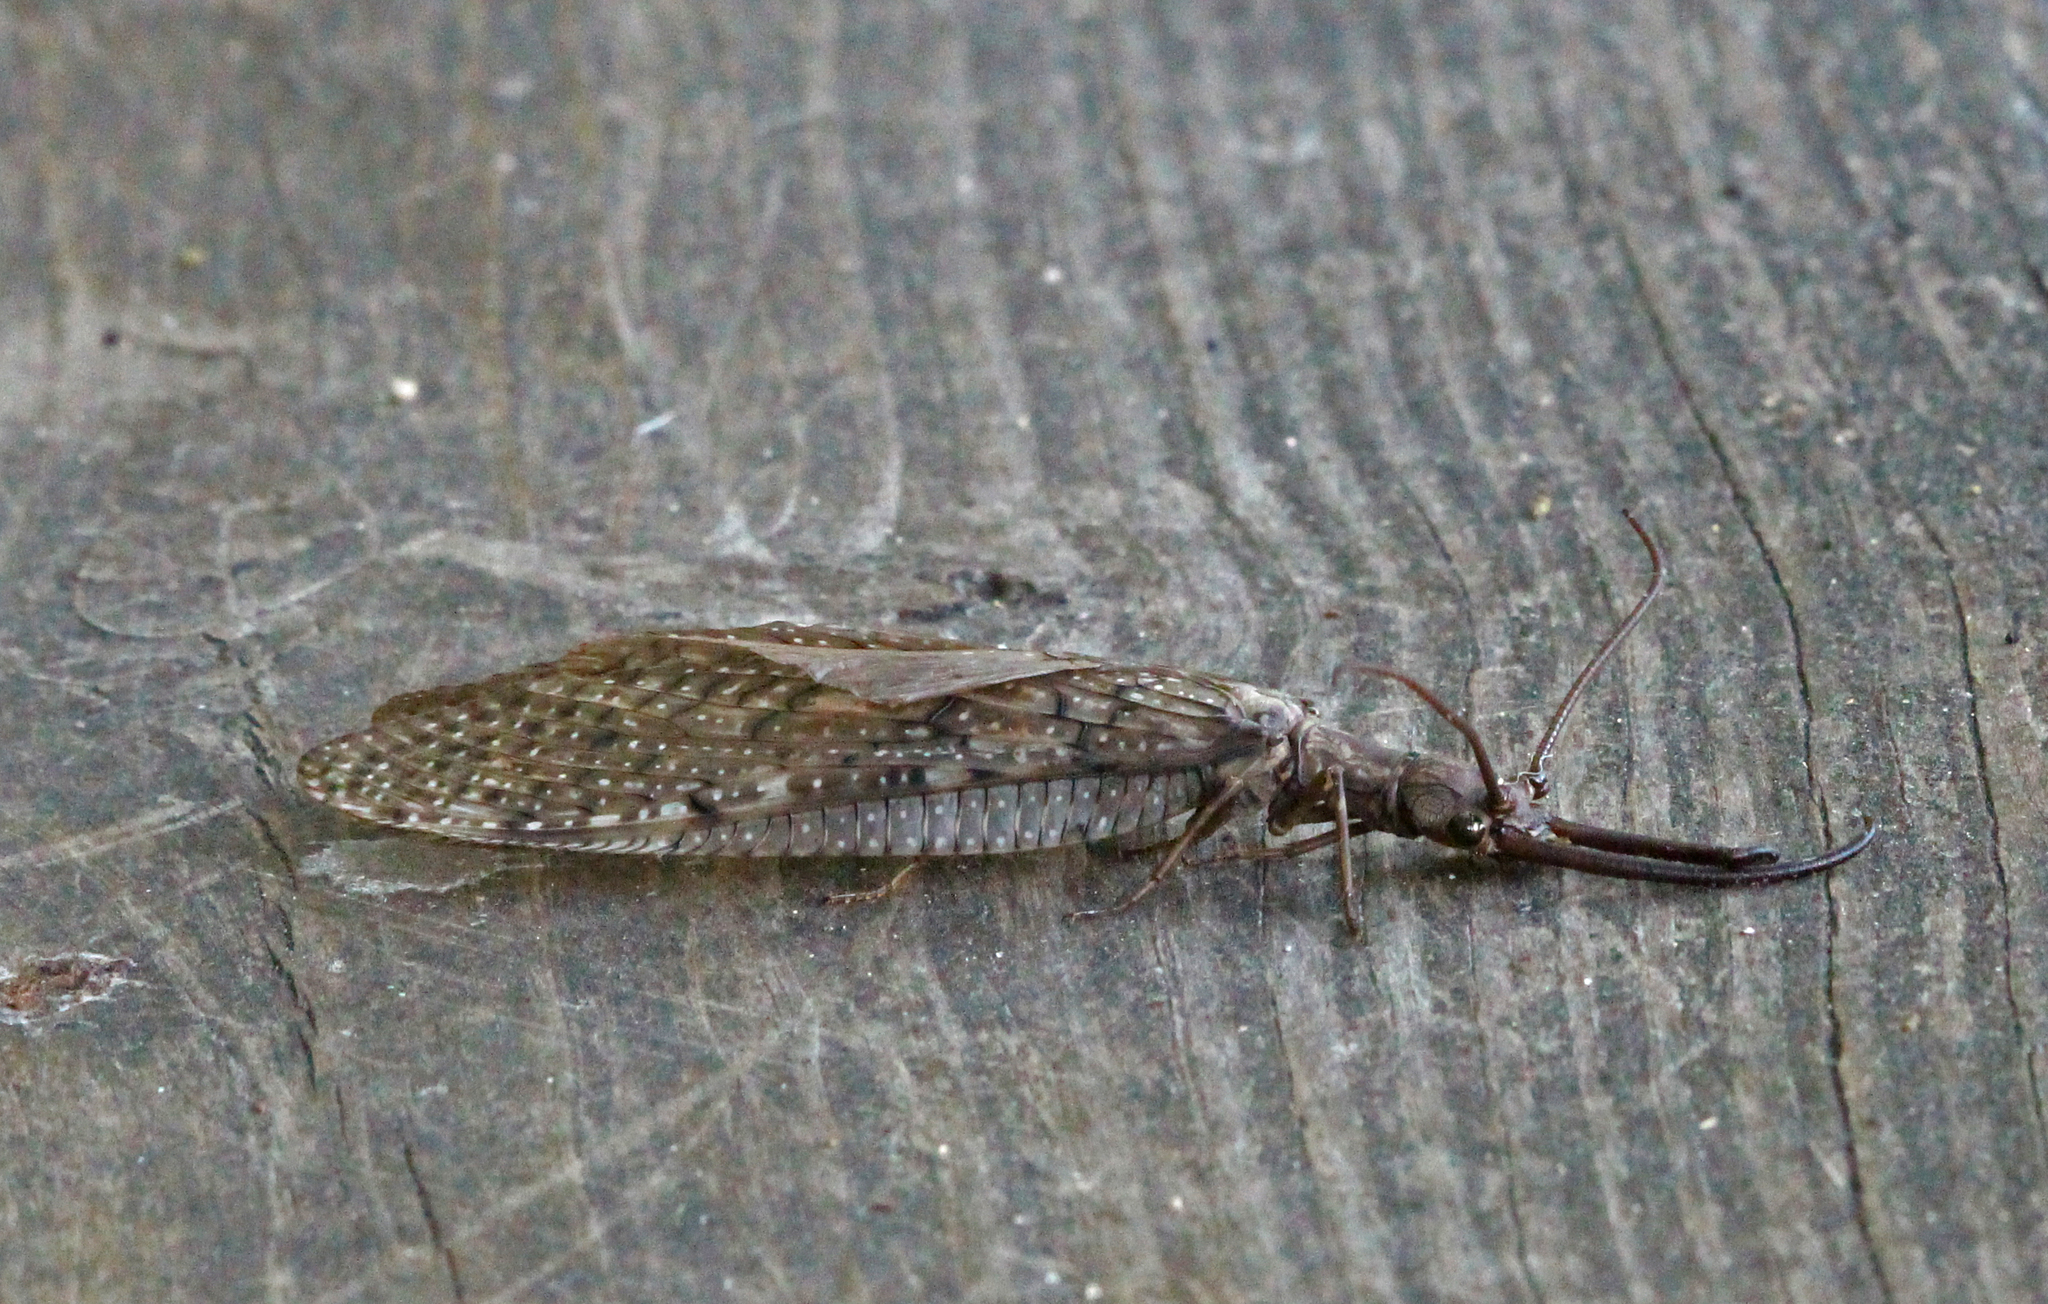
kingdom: Animalia
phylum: Arthropoda
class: Insecta
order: Megaloptera
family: Corydalidae
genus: Corydalus
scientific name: Corydalus cornutus
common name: Dobsonfly
